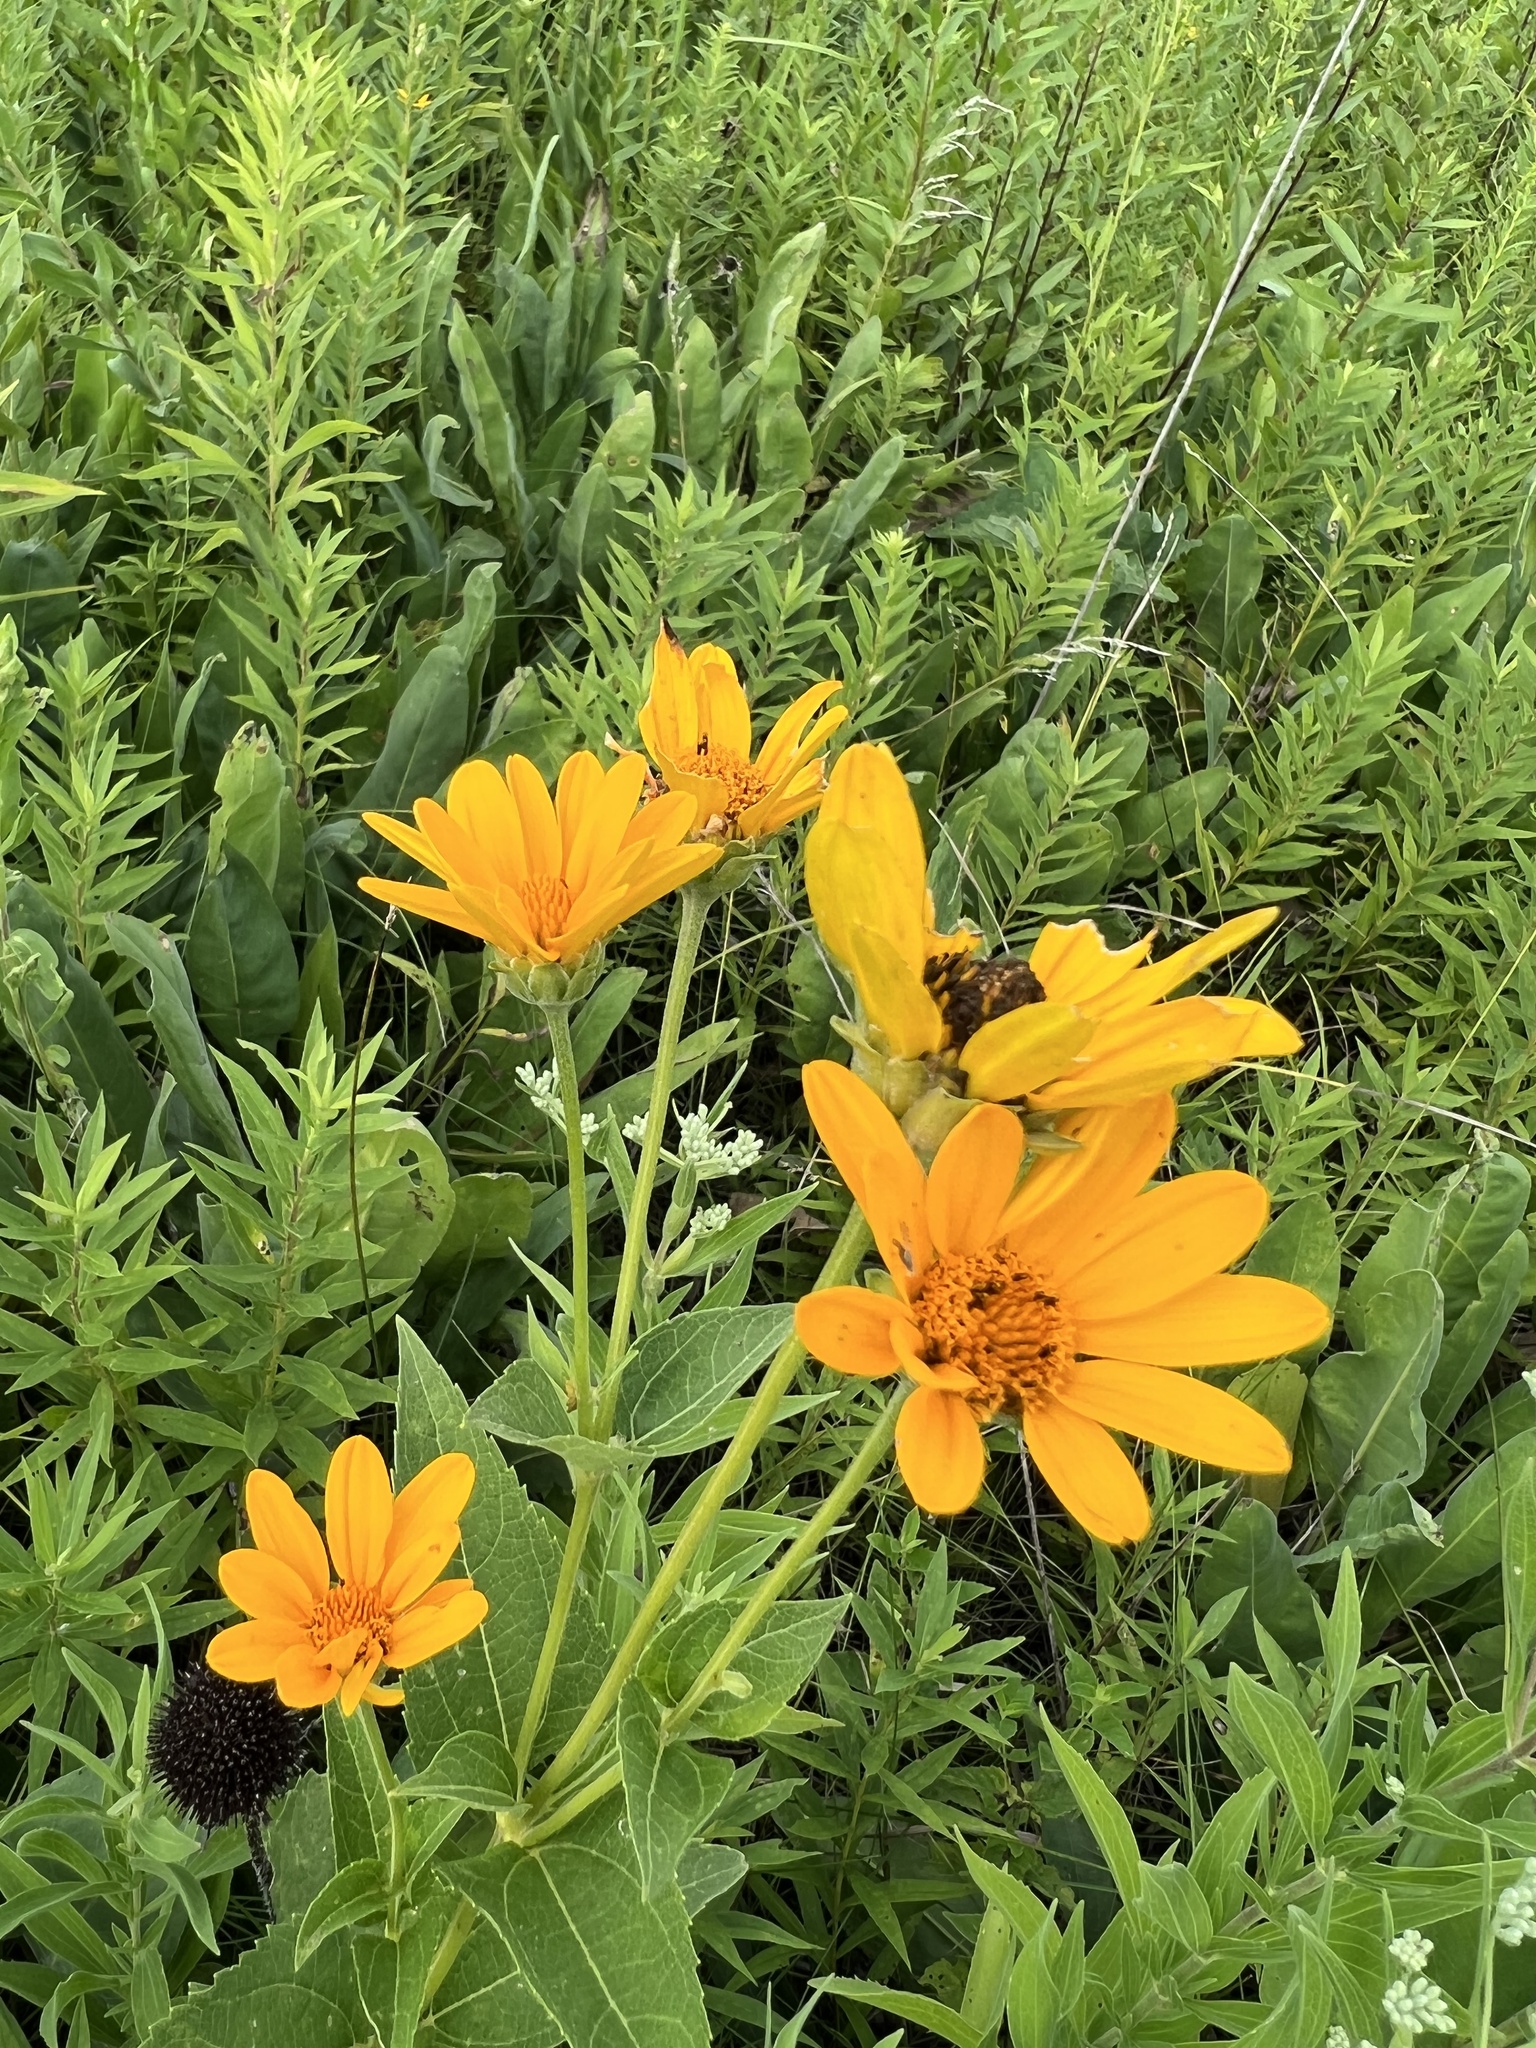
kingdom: Plantae
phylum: Tracheophyta
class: Magnoliopsida
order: Asterales
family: Asteraceae
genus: Heliopsis
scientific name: Heliopsis helianthoides
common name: False sunflower
